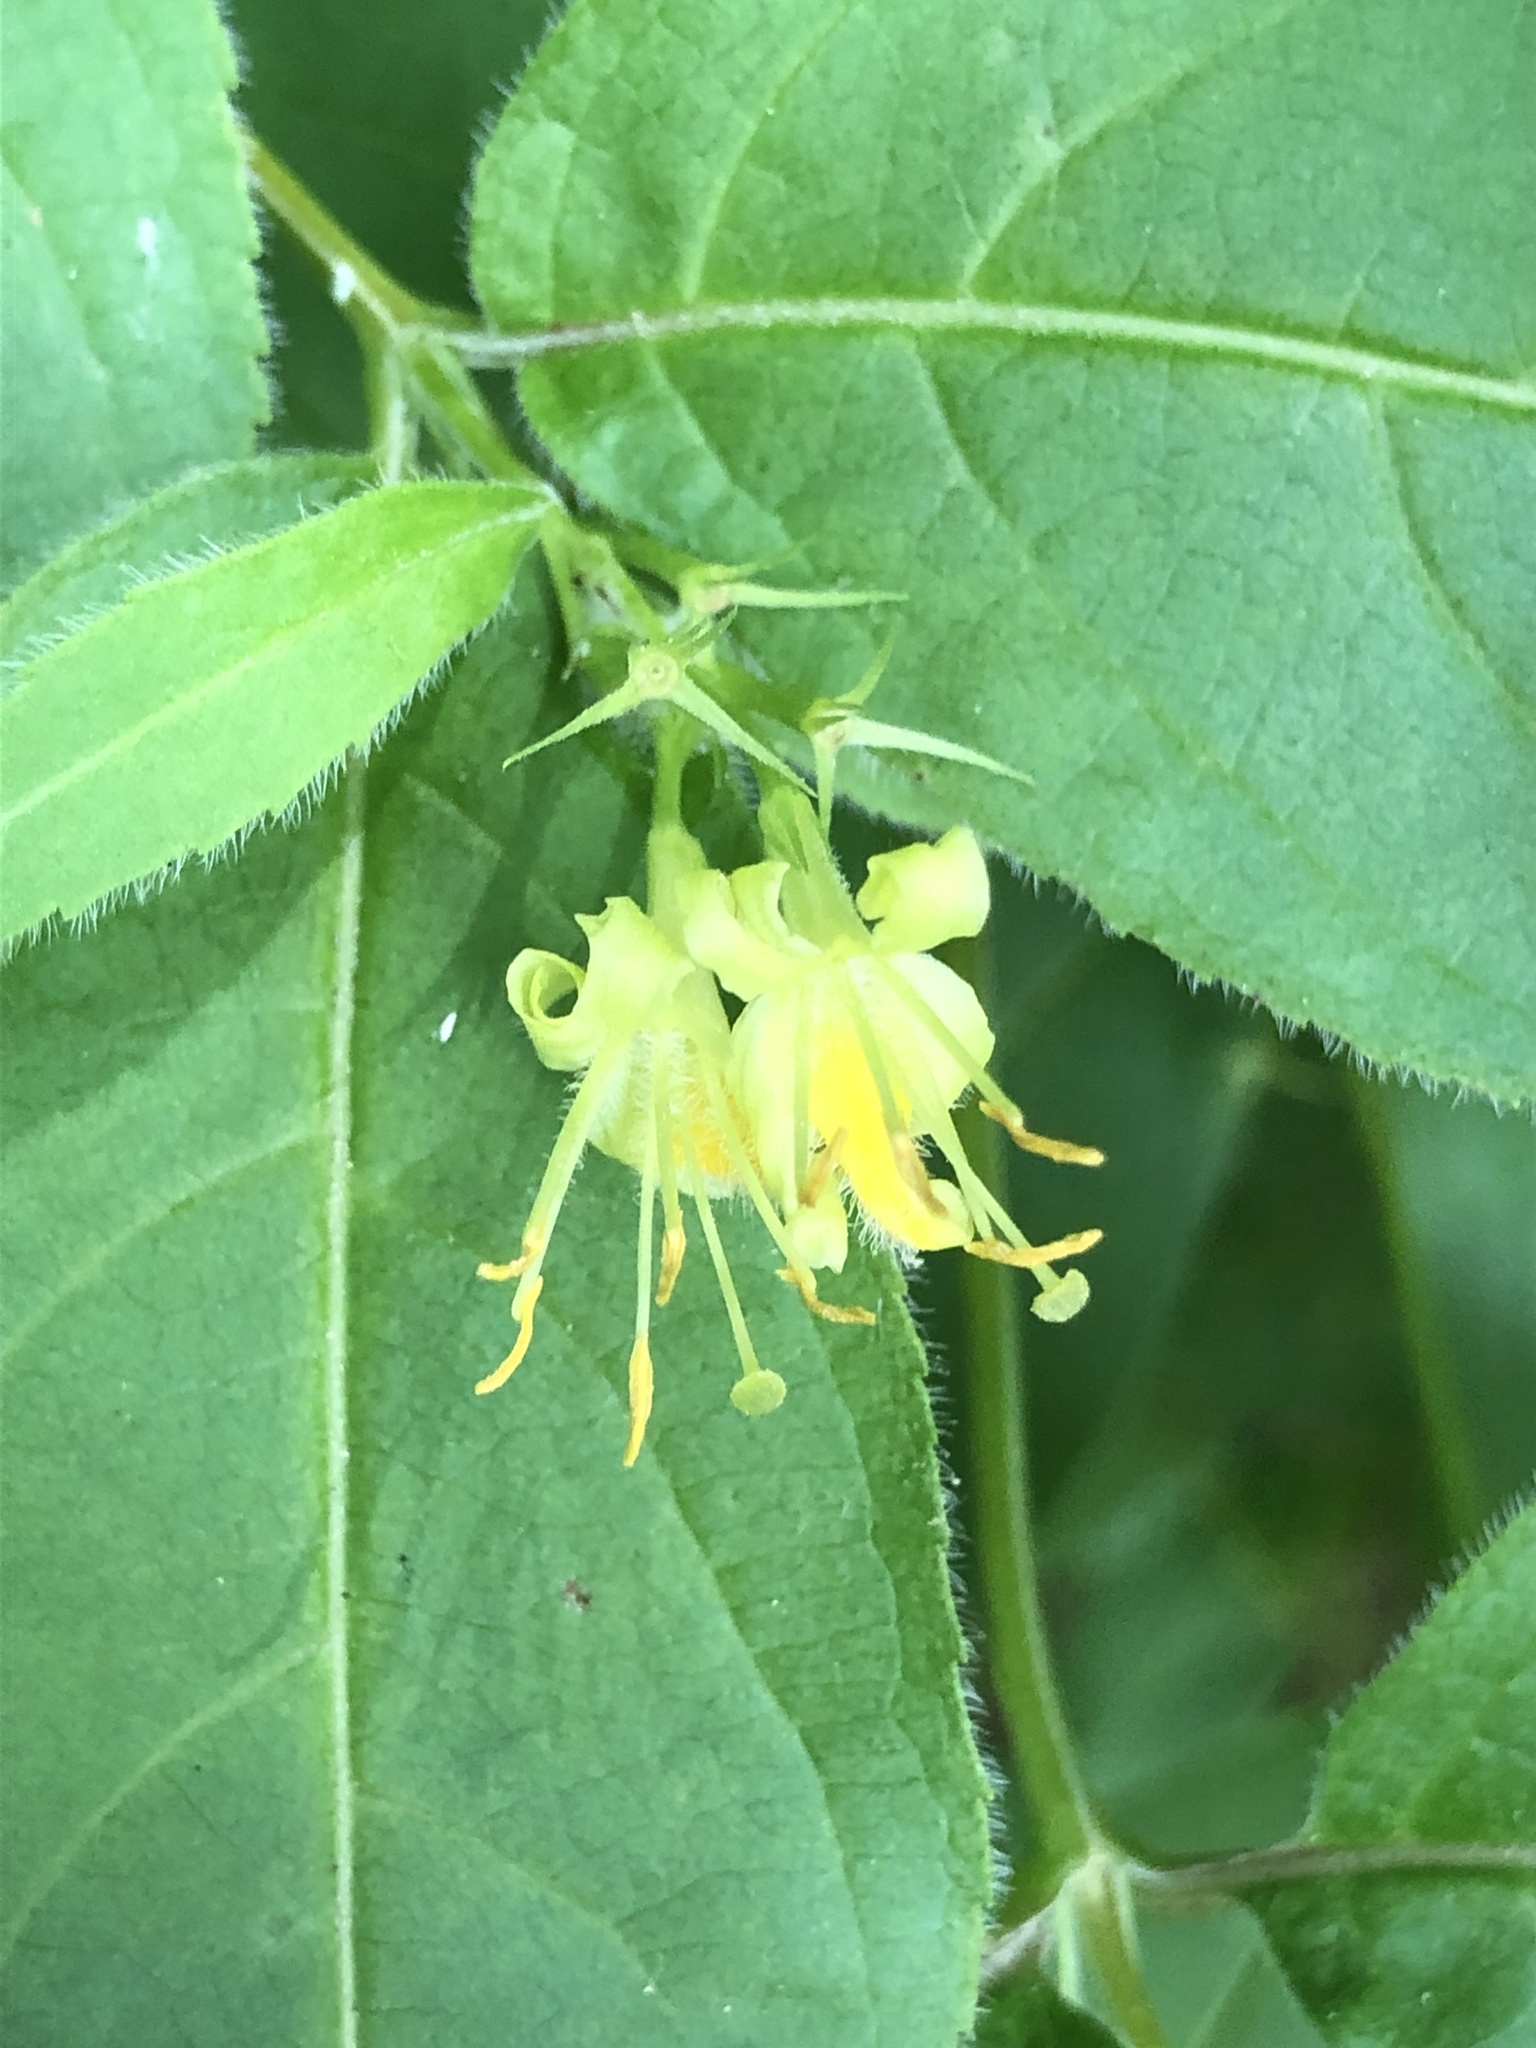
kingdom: Plantae
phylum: Tracheophyta
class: Magnoliopsida
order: Dipsacales
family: Caprifoliaceae
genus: Diervilla
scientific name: Diervilla lonicera
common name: Bush-honeysuckle
